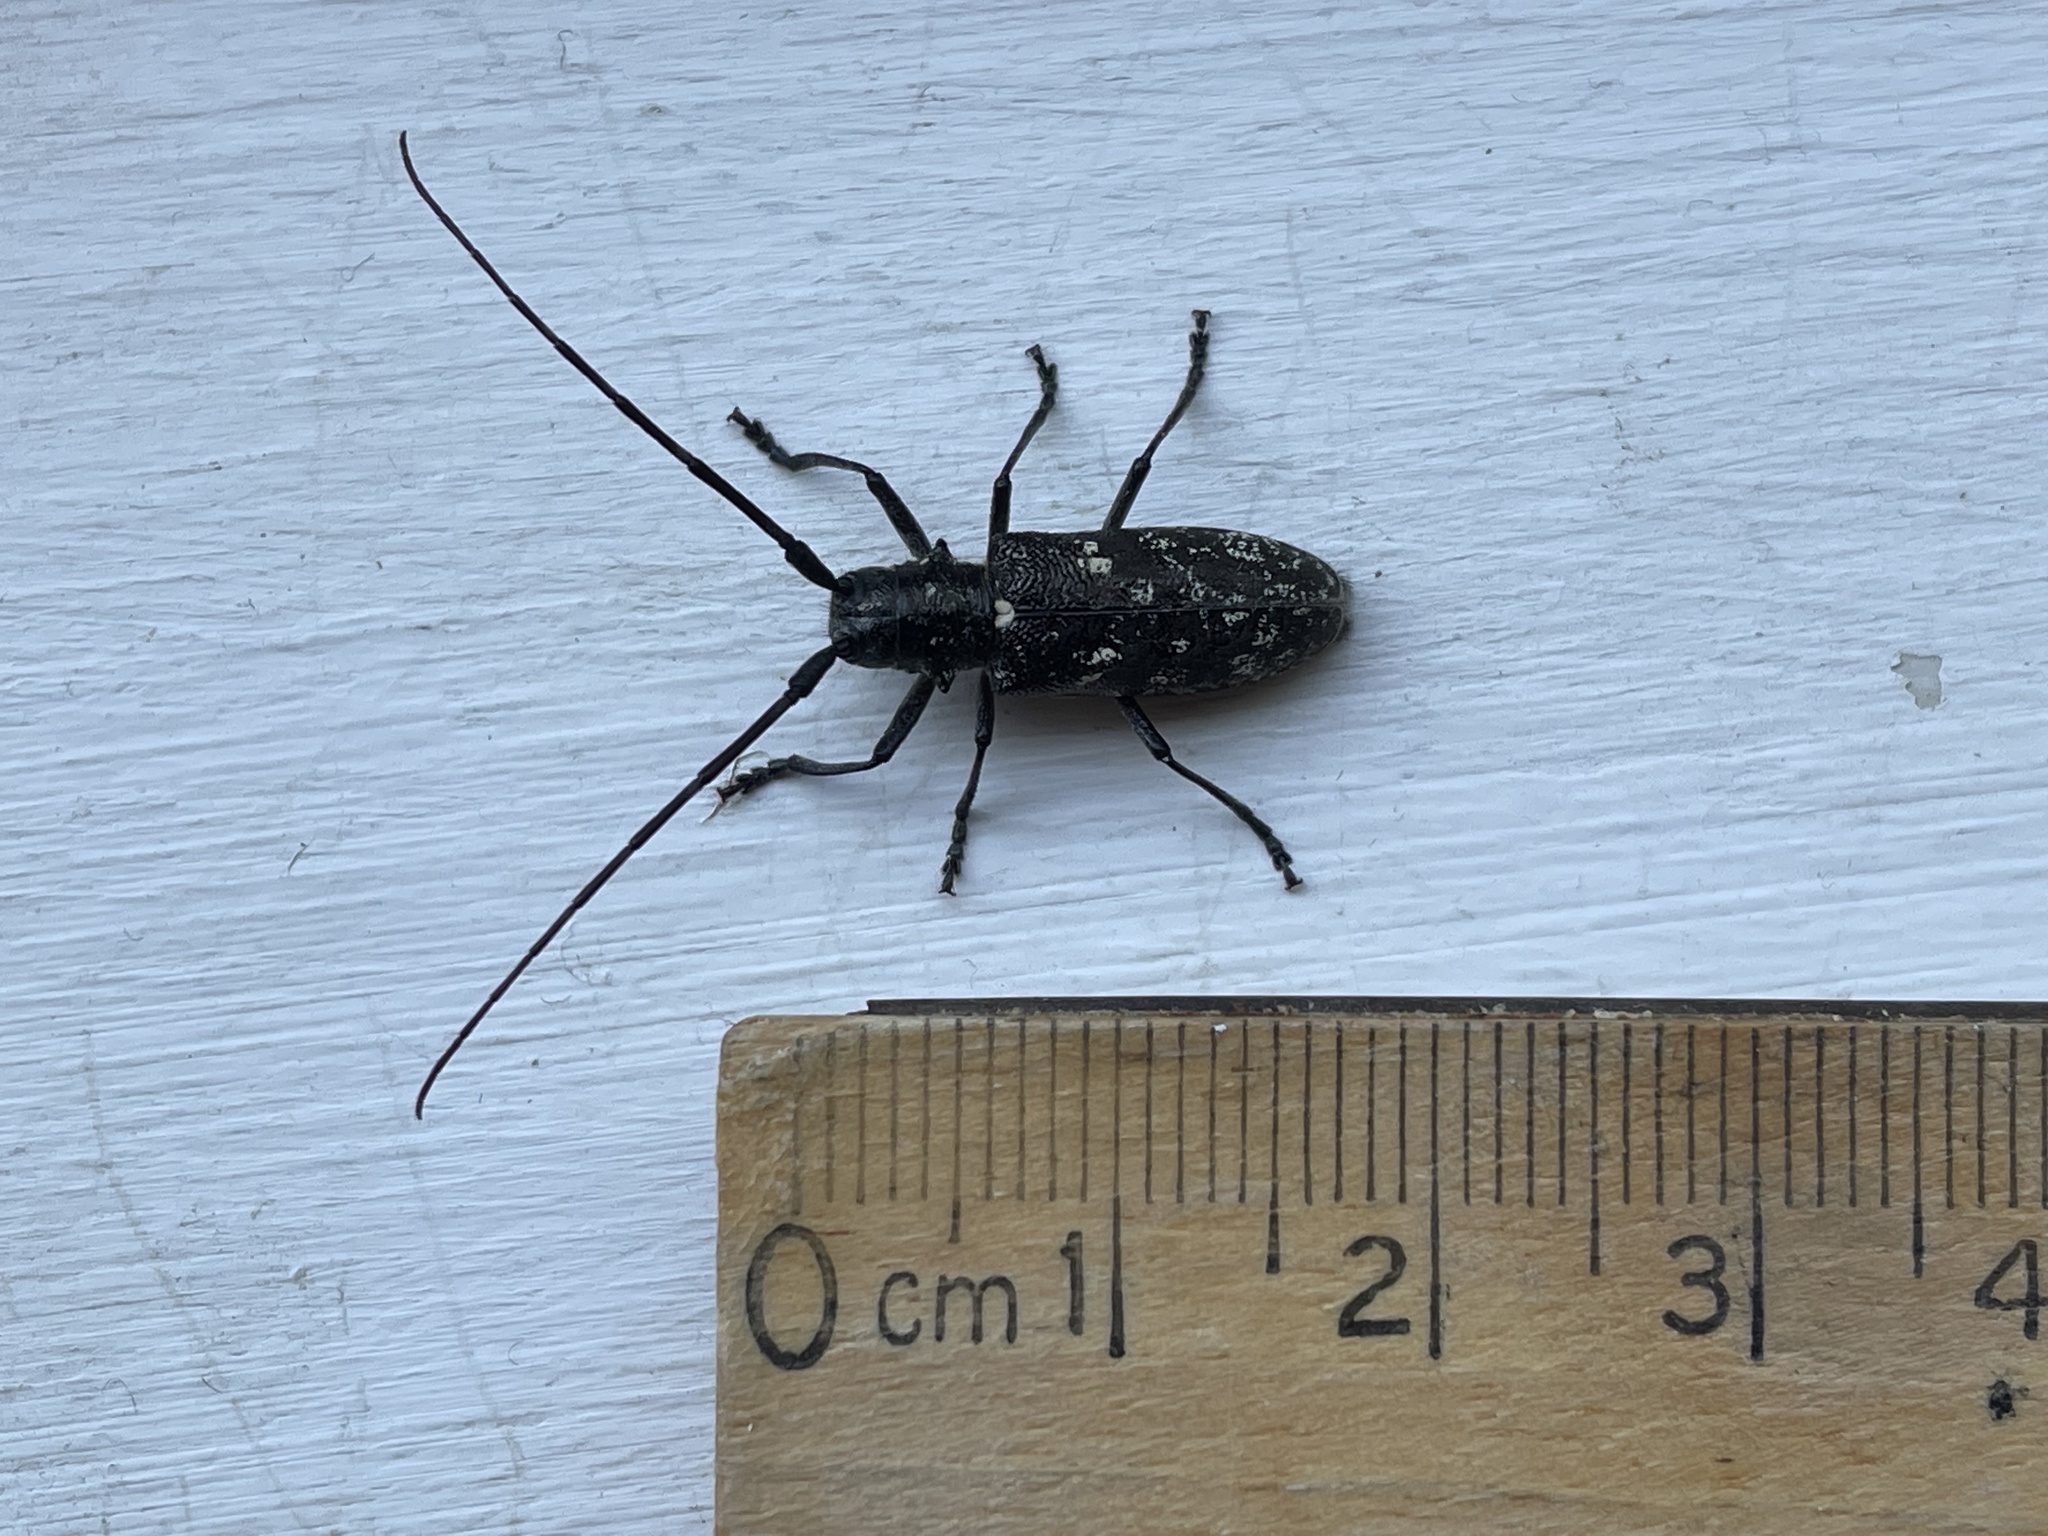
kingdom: Animalia
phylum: Arthropoda
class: Insecta
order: Coleoptera
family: Cerambycidae
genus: Monochamus
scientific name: Monochamus scutellatus
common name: White-spotted sawyer beetle
